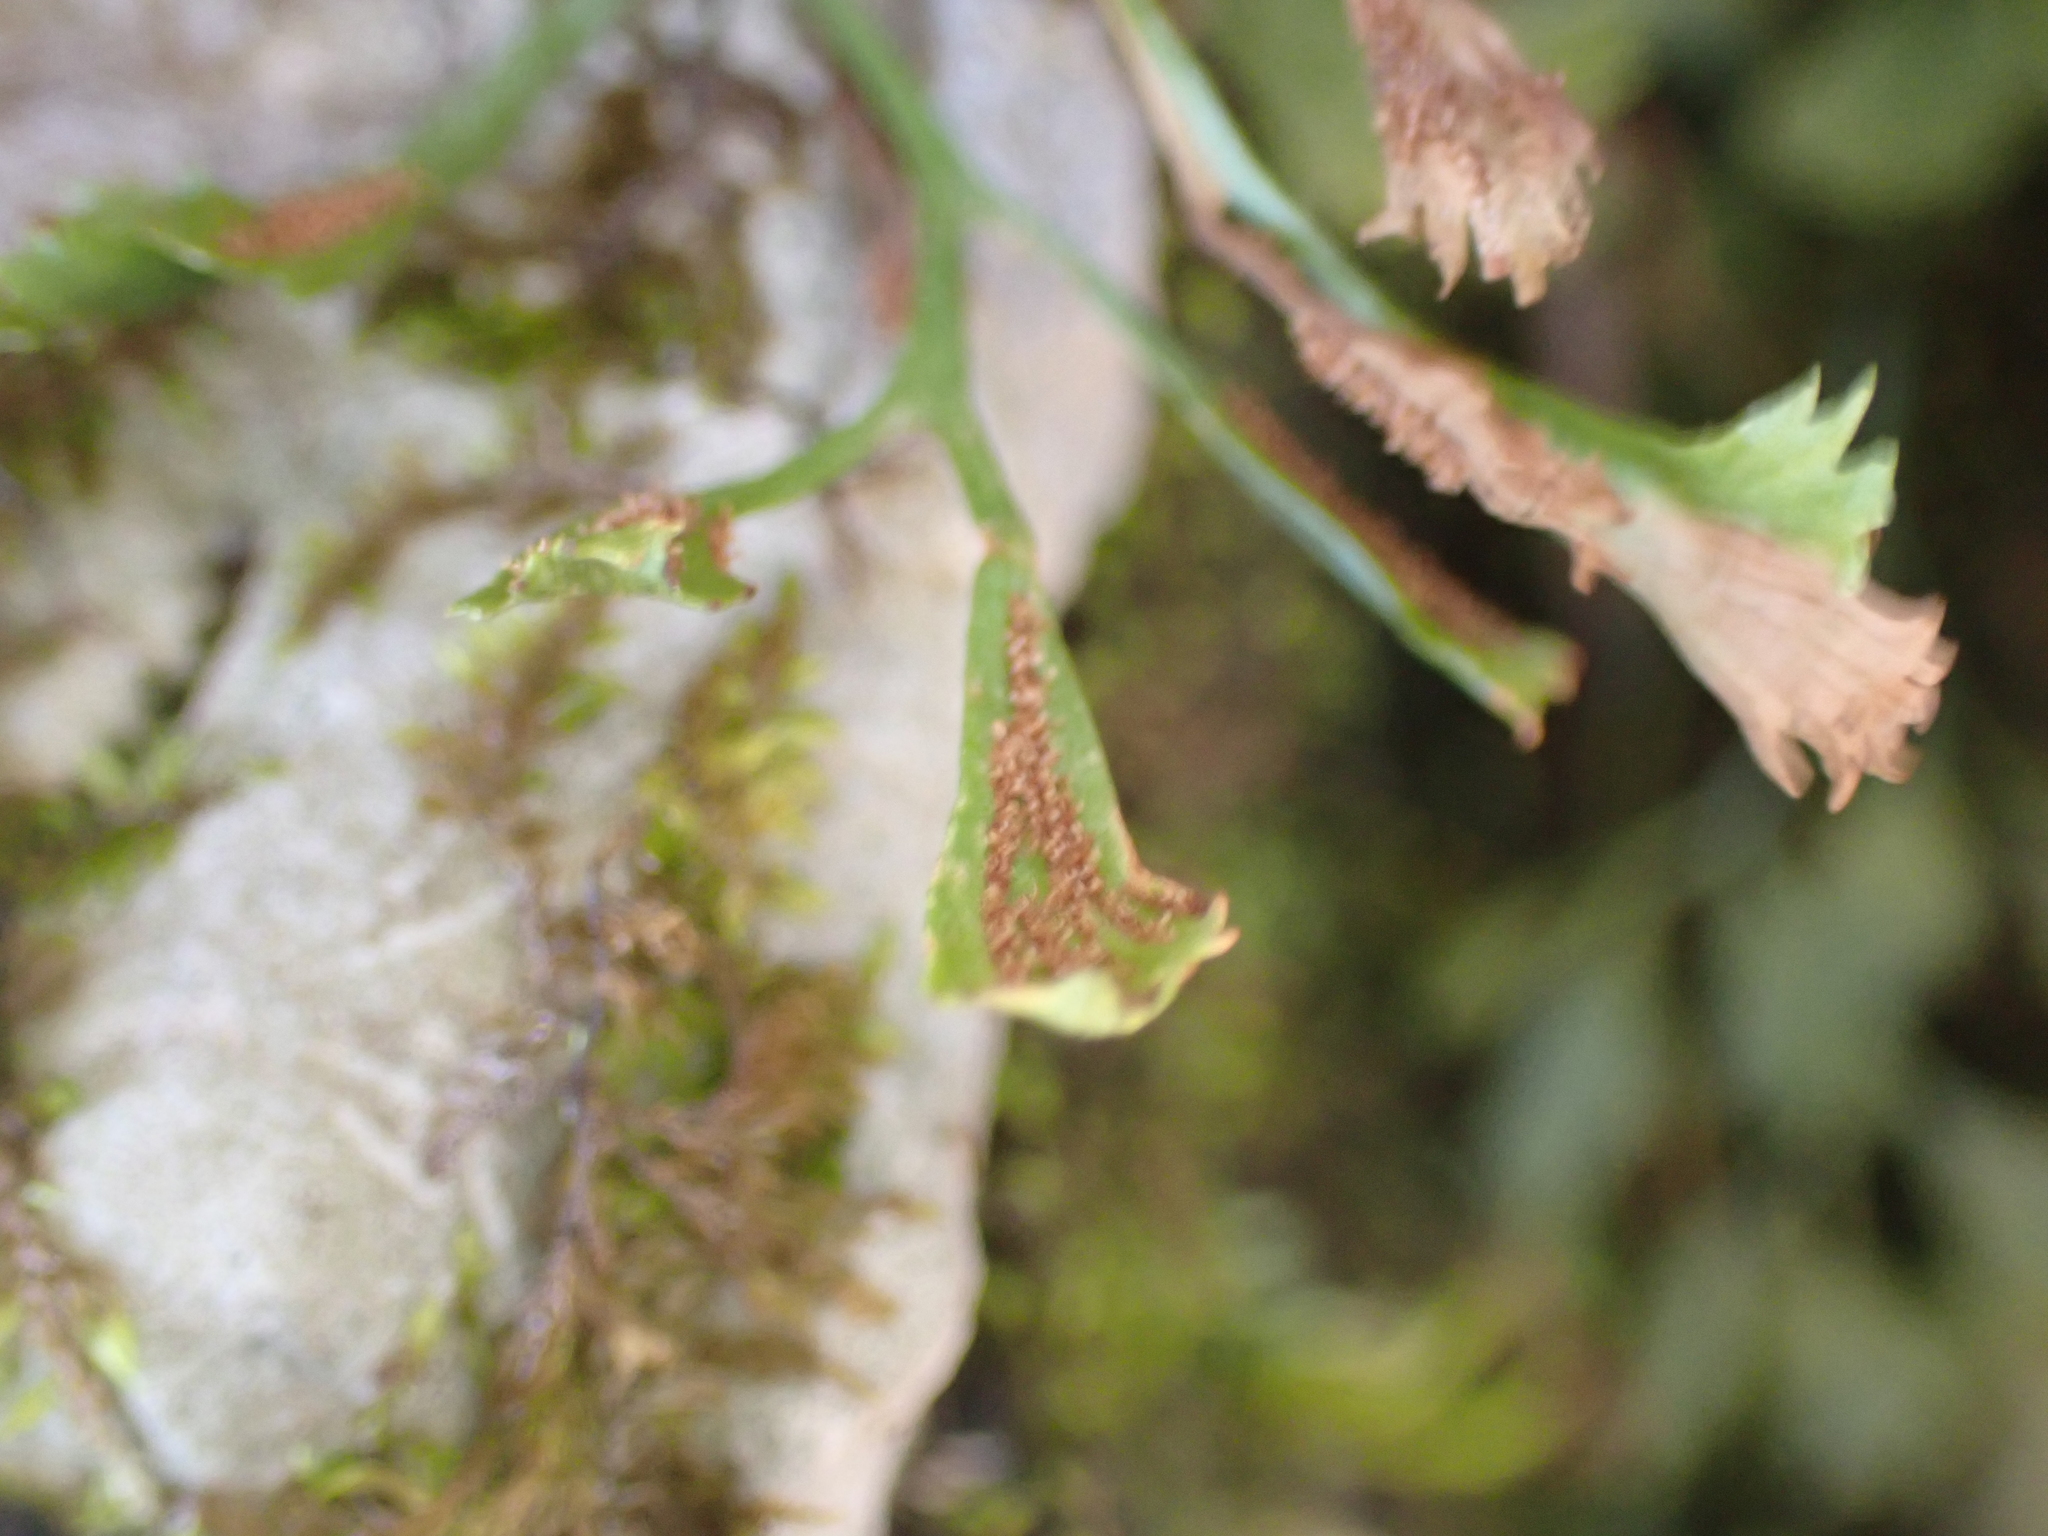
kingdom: Plantae
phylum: Tracheophyta
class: Polypodiopsida
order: Polypodiales
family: Aspleniaceae
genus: Asplenium
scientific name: Asplenium ruta-muraria
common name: Wall-rue
